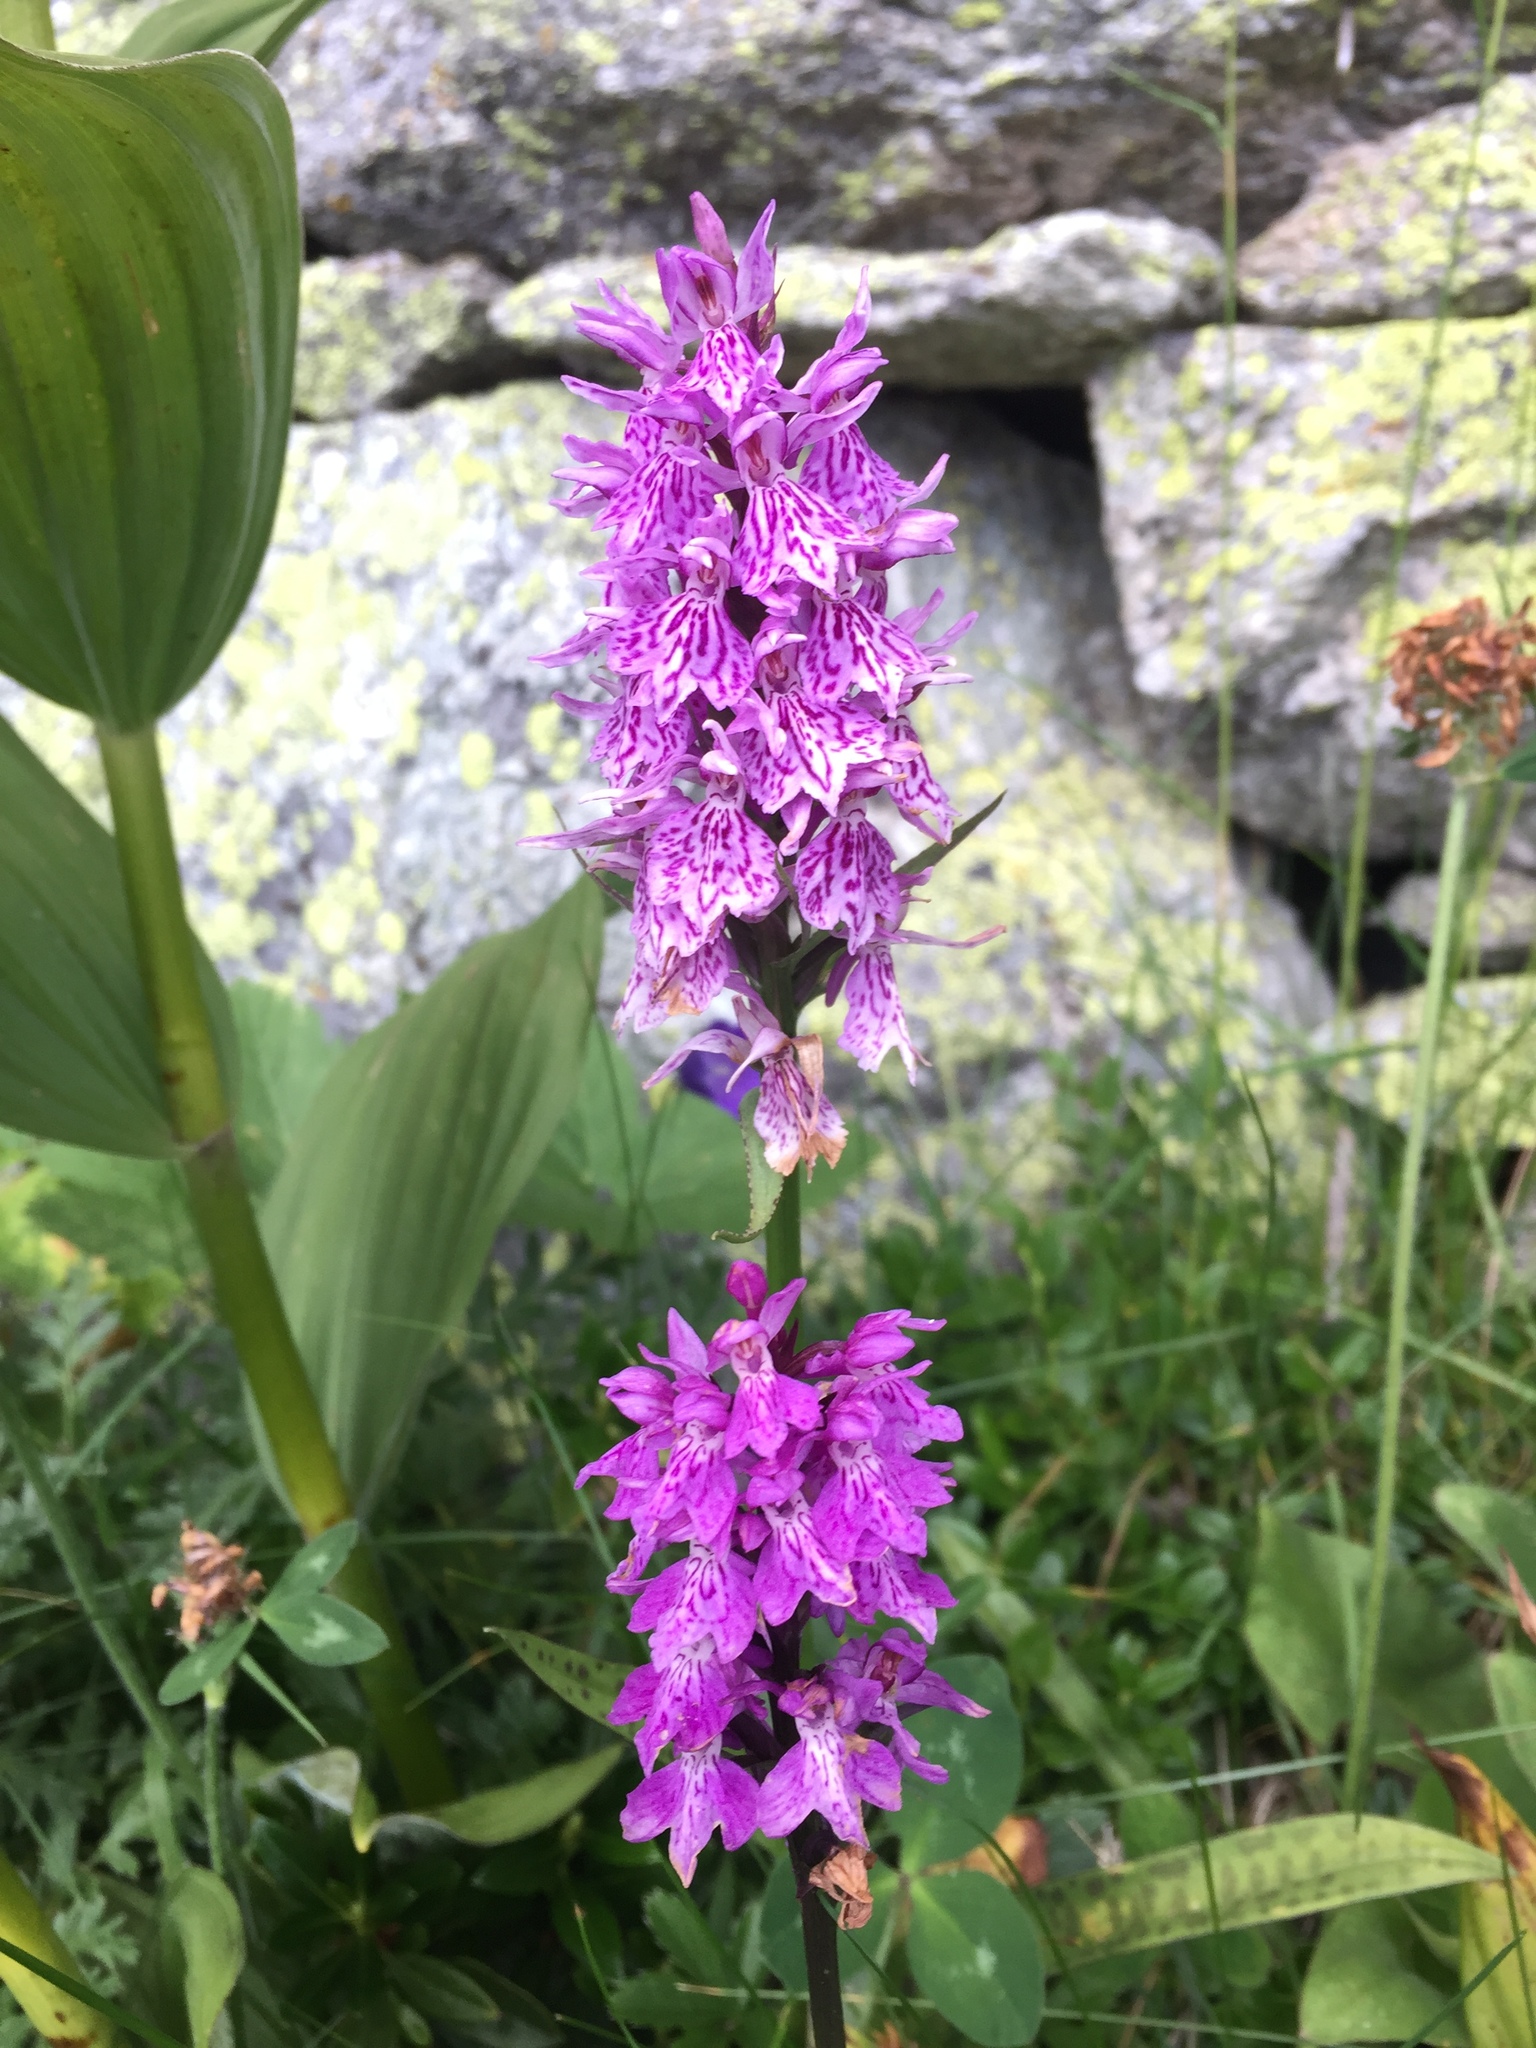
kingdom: Plantae
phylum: Tracheophyta
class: Liliopsida
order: Asparagales
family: Orchidaceae
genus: Dactylorhiza
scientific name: Dactylorhiza majalis
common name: Marsh orchid
